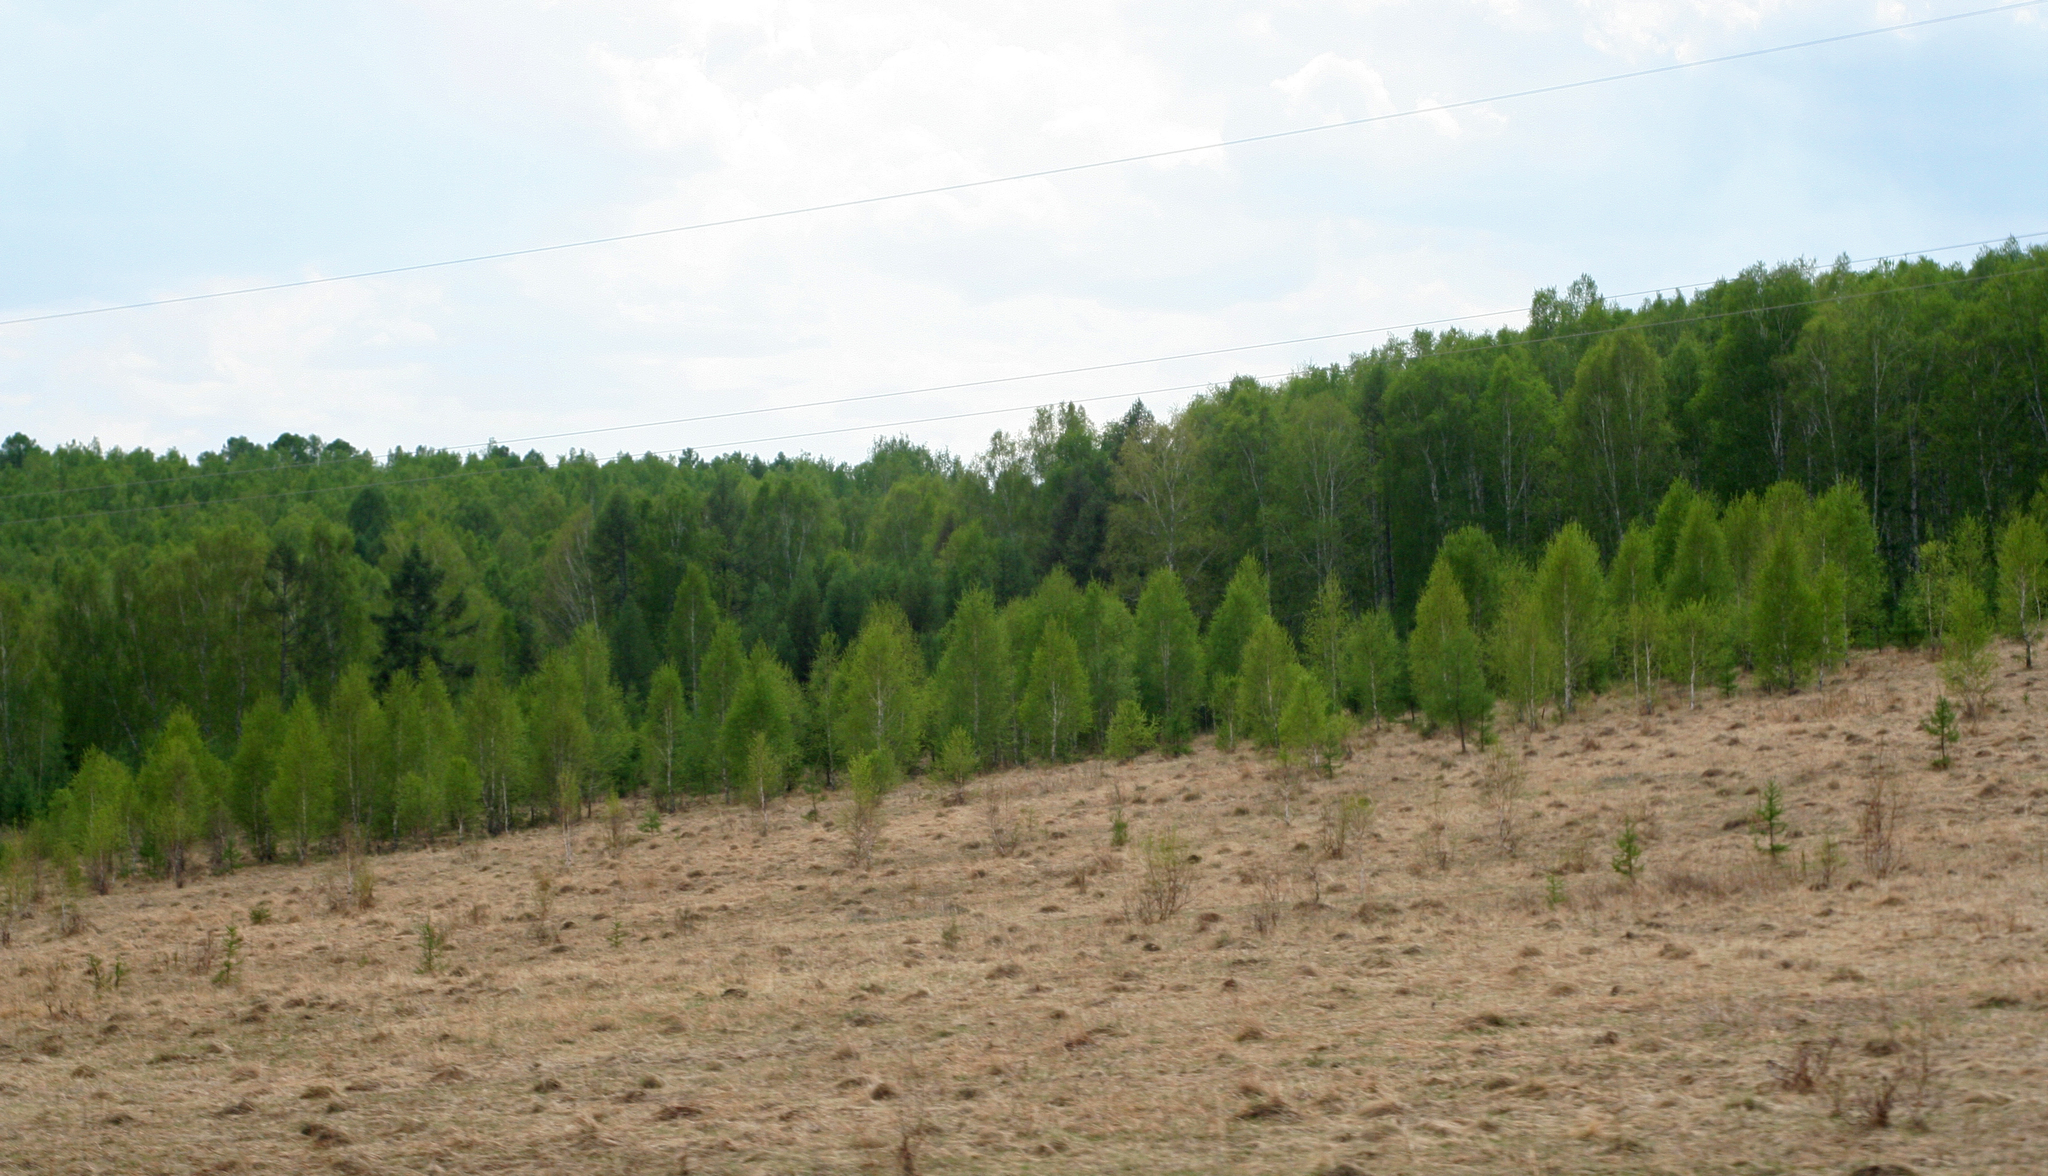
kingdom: Plantae
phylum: Tracheophyta
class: Pinopsida
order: Pinales
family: Pinaceae
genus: Larix
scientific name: Larix sibirica
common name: Siberian larch
